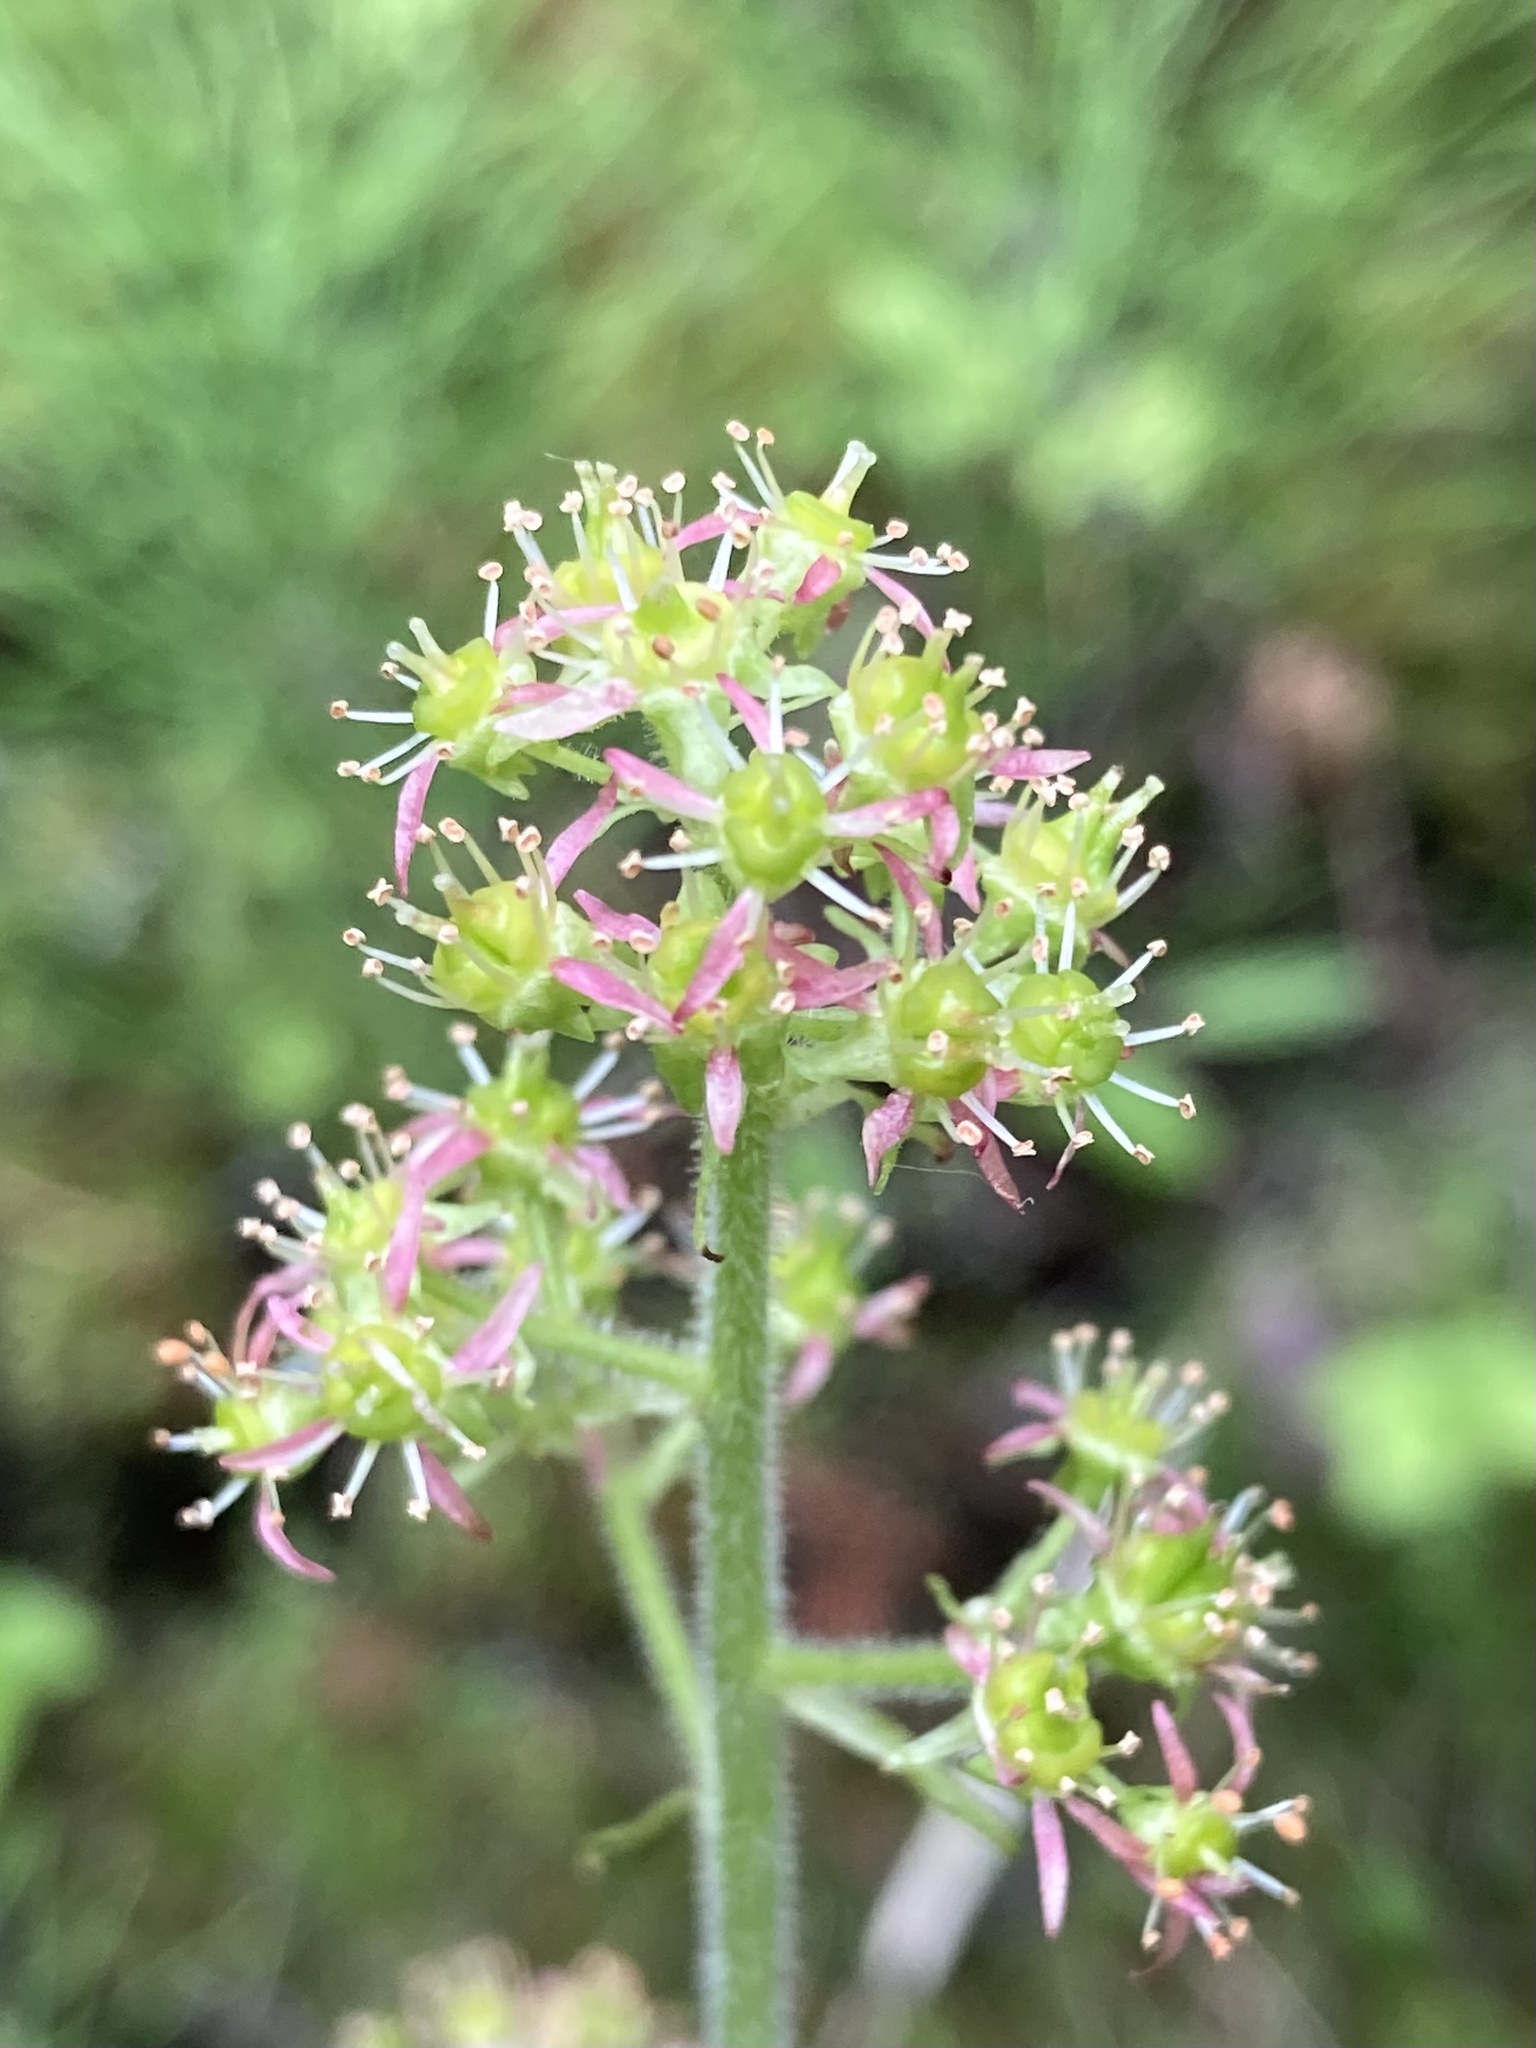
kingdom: Plantae
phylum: Tracheophyta
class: Magnoliopsida
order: Saxifragales
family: Saxifragaceae
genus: Micranthes
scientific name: Micranthes pensylvanica
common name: Marsh saxifrage
